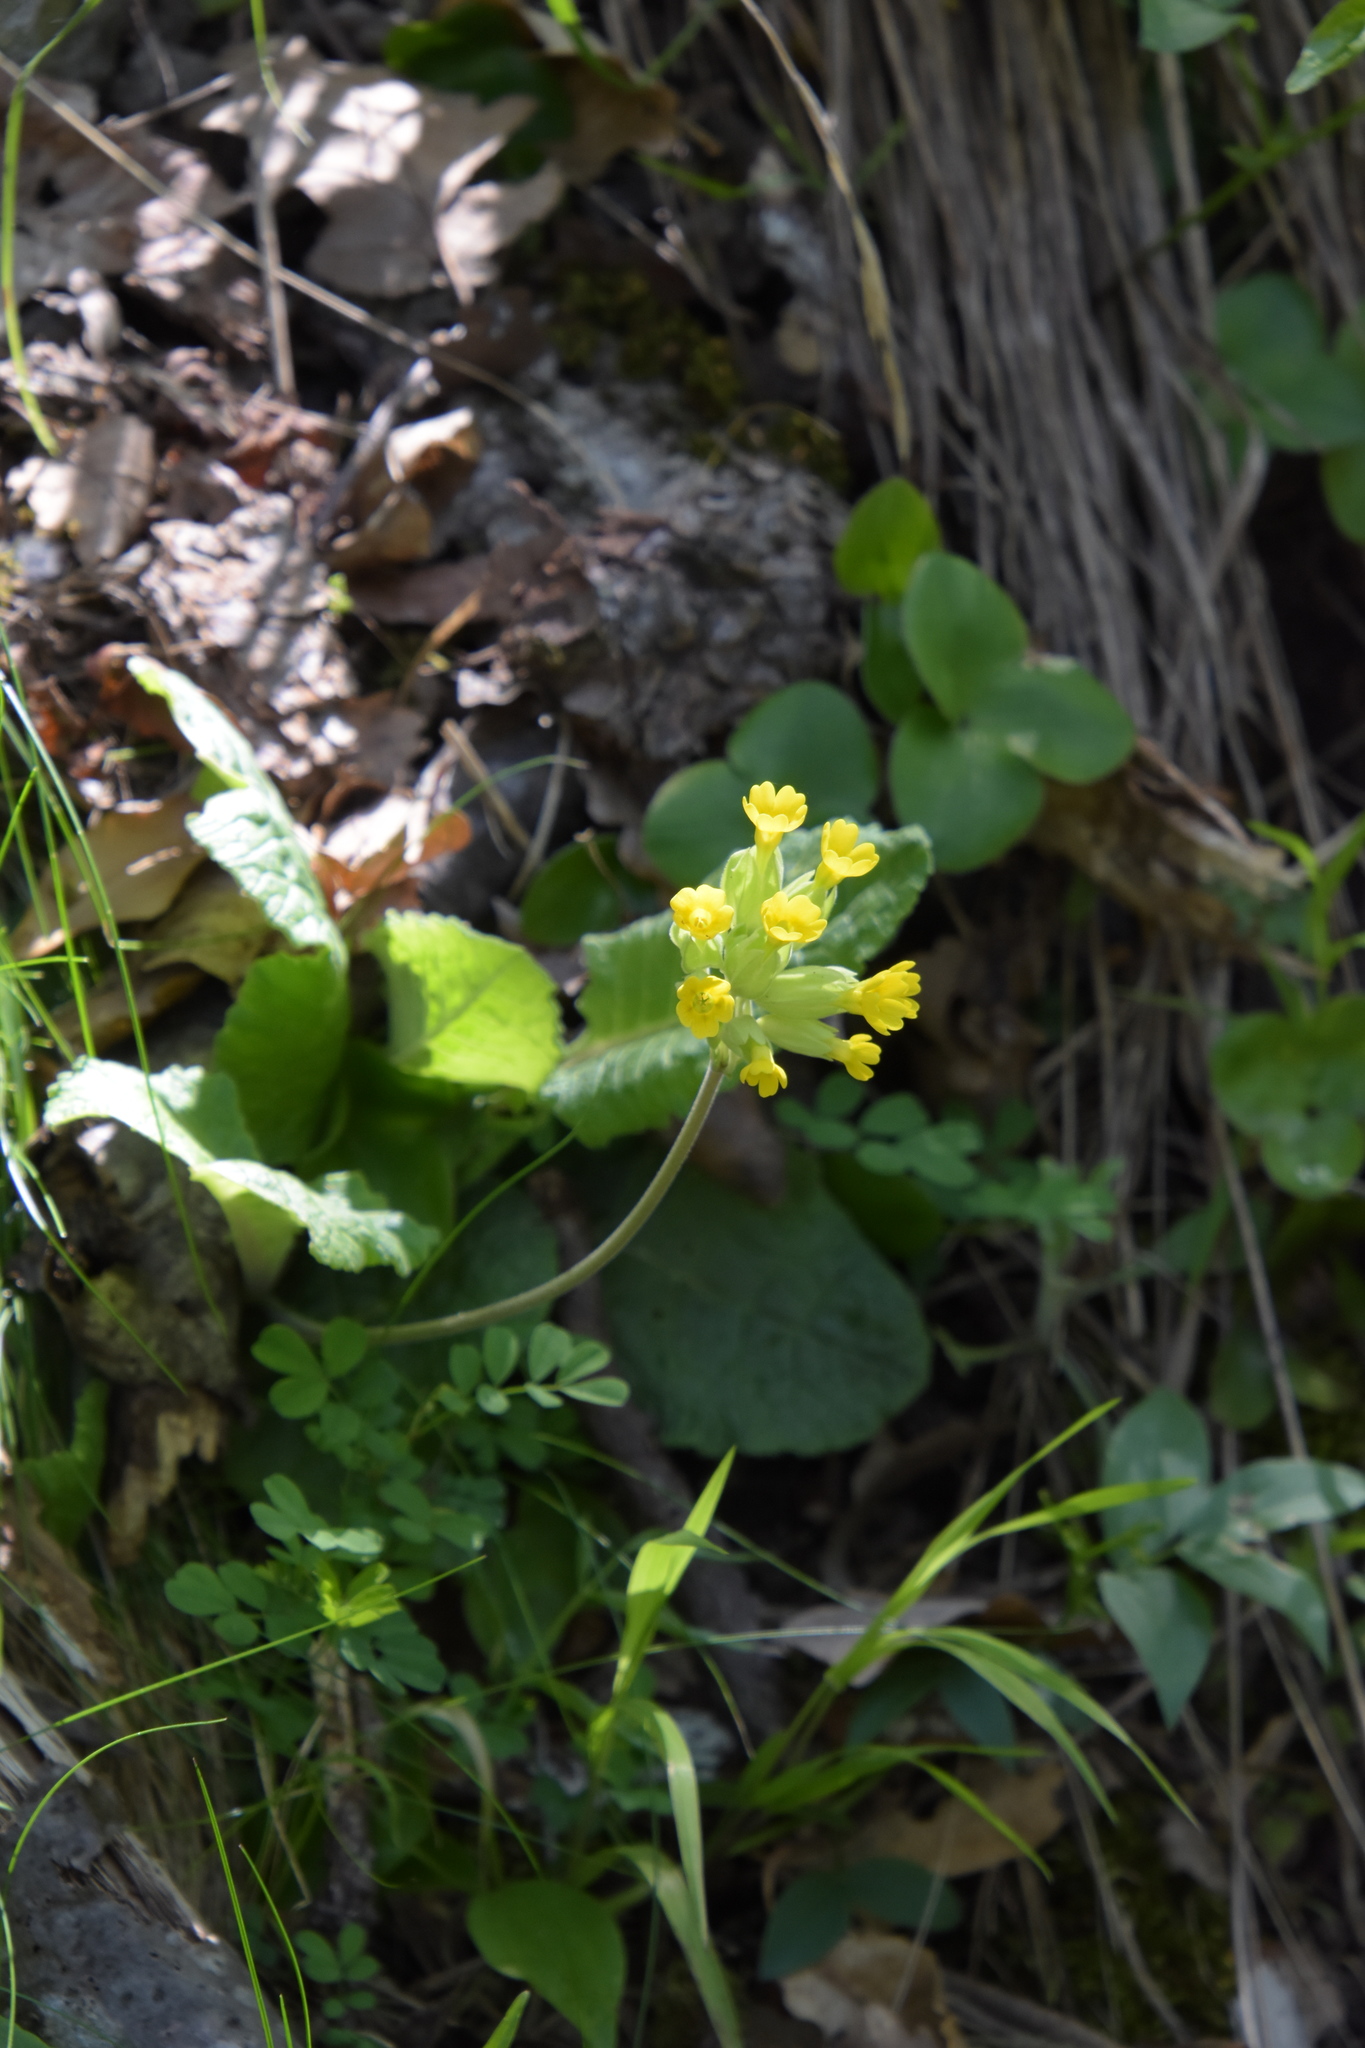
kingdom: Plantae
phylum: Tracheophyta
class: Magnoliopsida
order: Ericales
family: Primulaceae
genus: Primula
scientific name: Primula veris
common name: Cowslip
